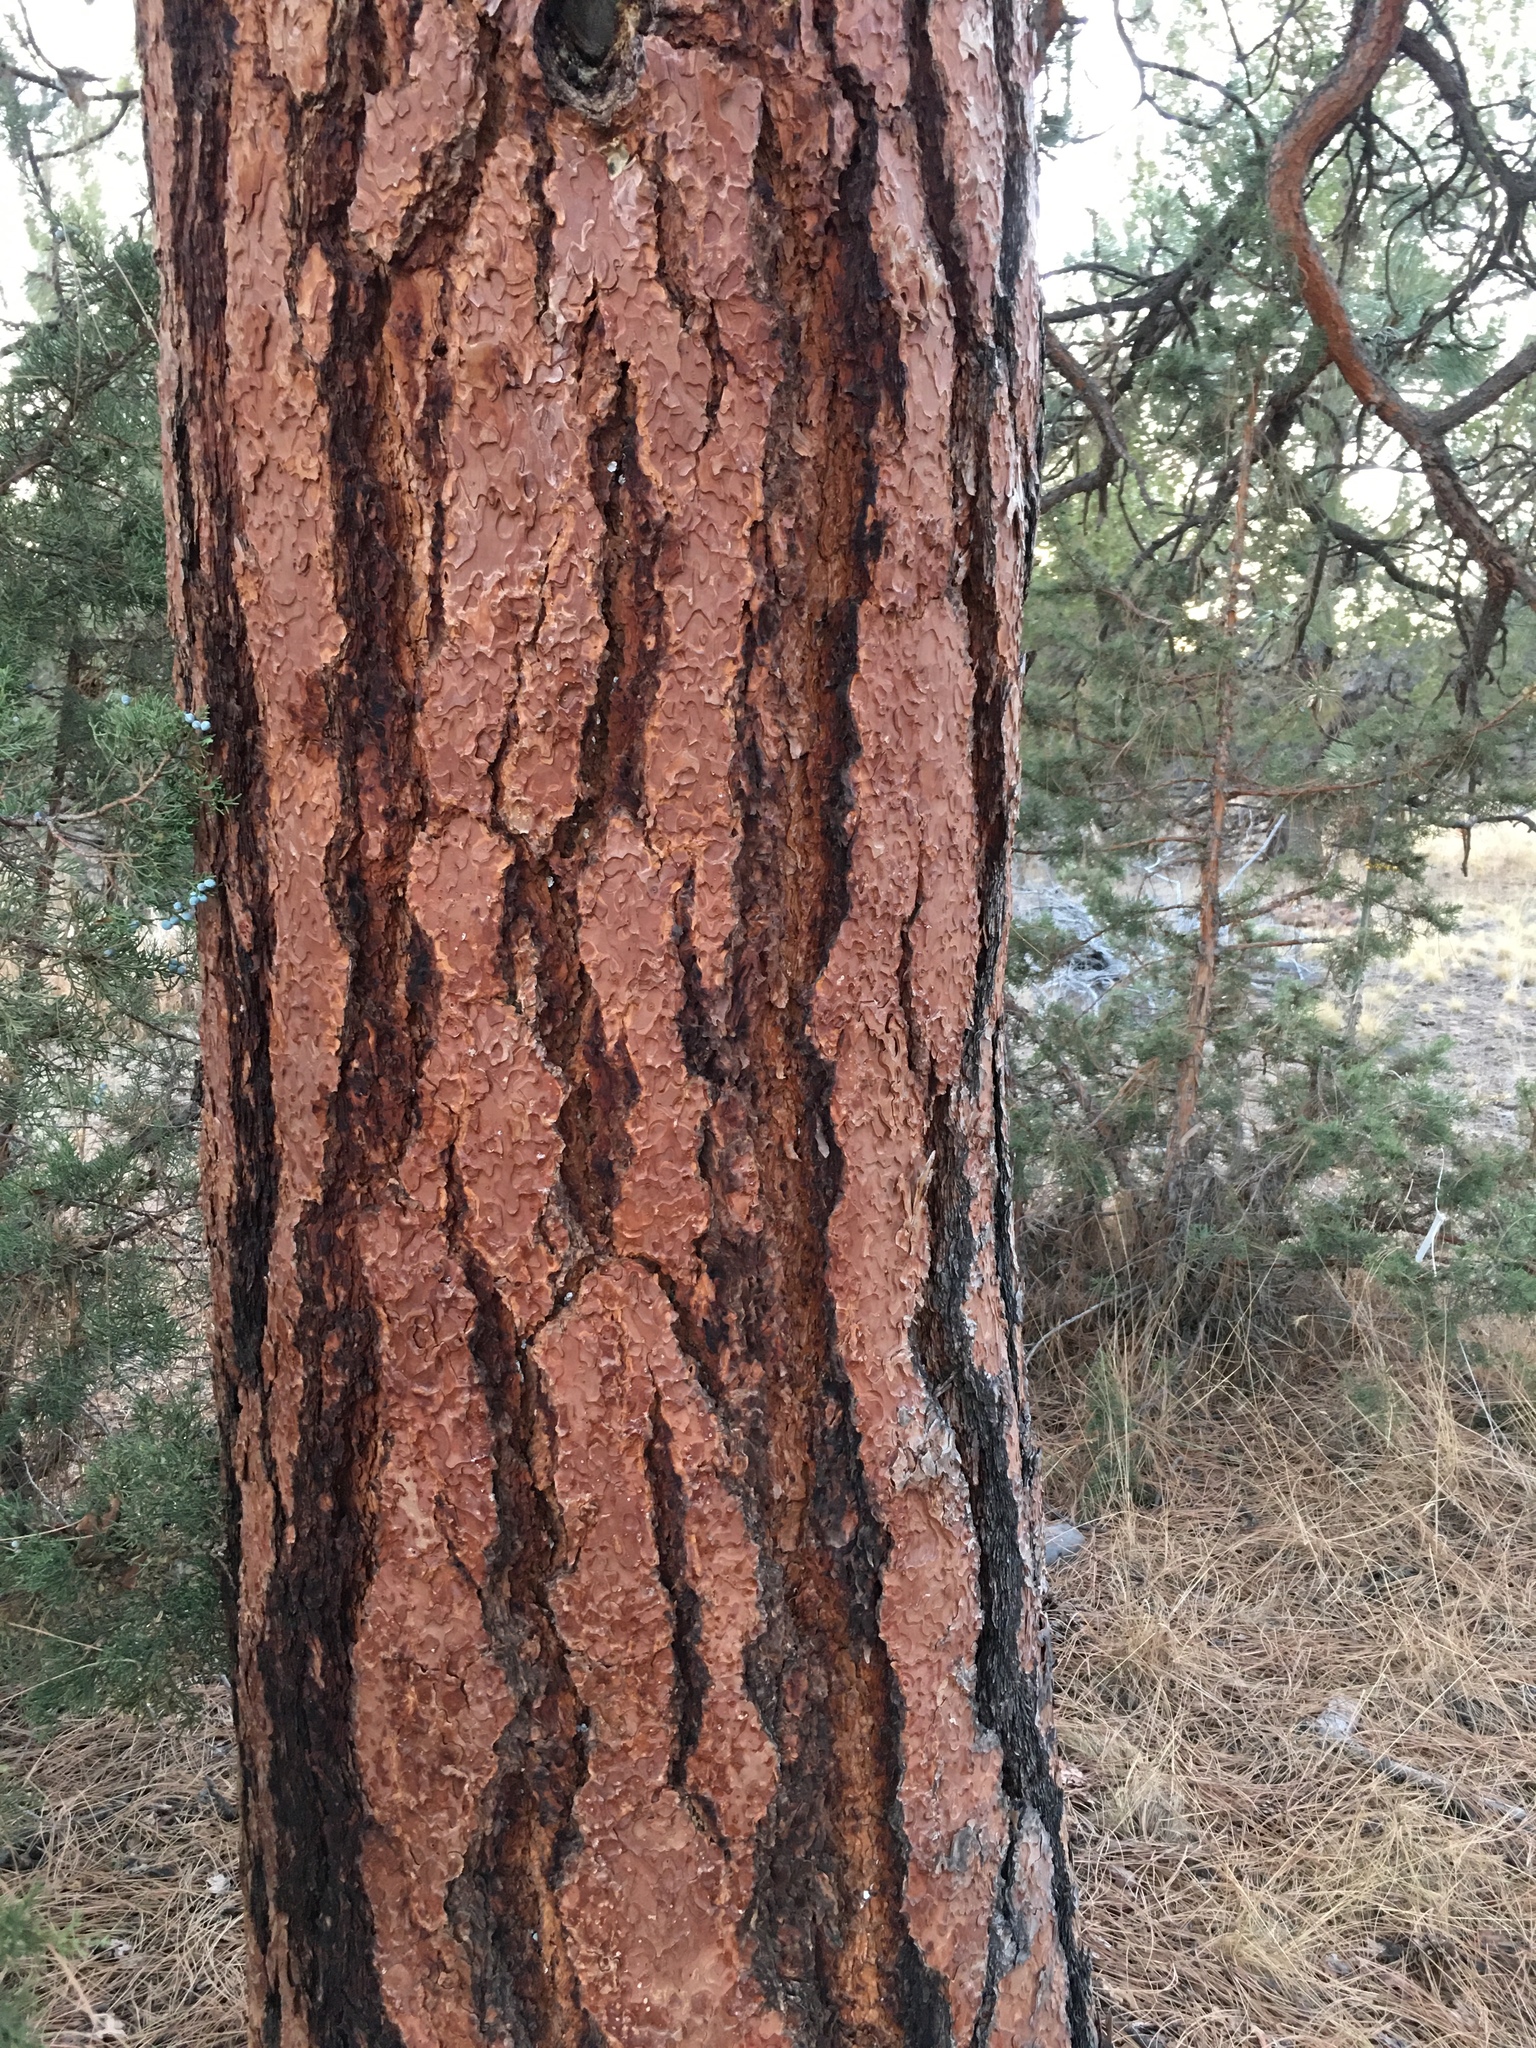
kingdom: Plantae
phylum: Tracheophyta
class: Pinopsida
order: Pinales
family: Pinaceae
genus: Pinus
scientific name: Pinus ponderosa
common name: Western yellow-pine
